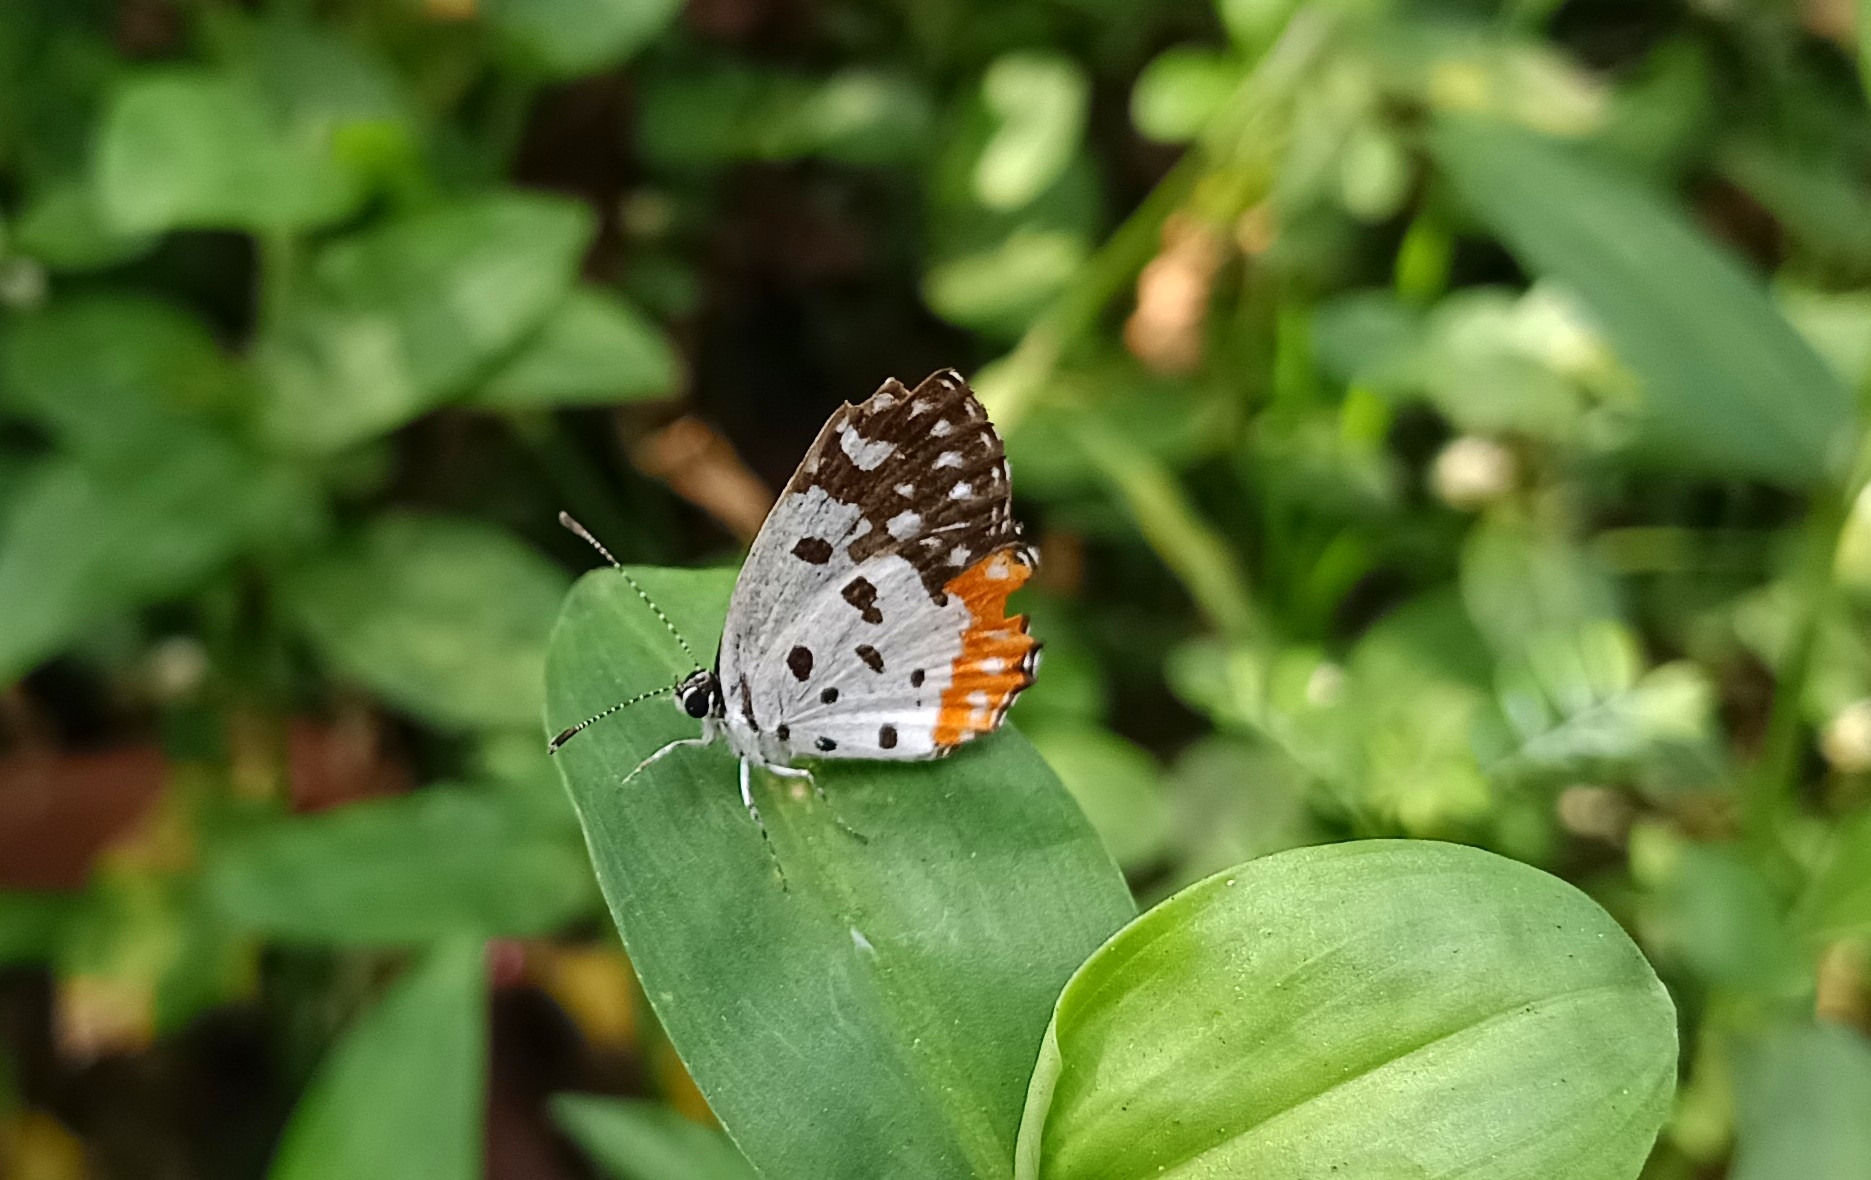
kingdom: Animalia
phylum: Arthropoda
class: Insecta
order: Lepidoptera
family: Lycaenidae
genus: Talicada
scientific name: Talicada nyseus
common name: Red pierrot
